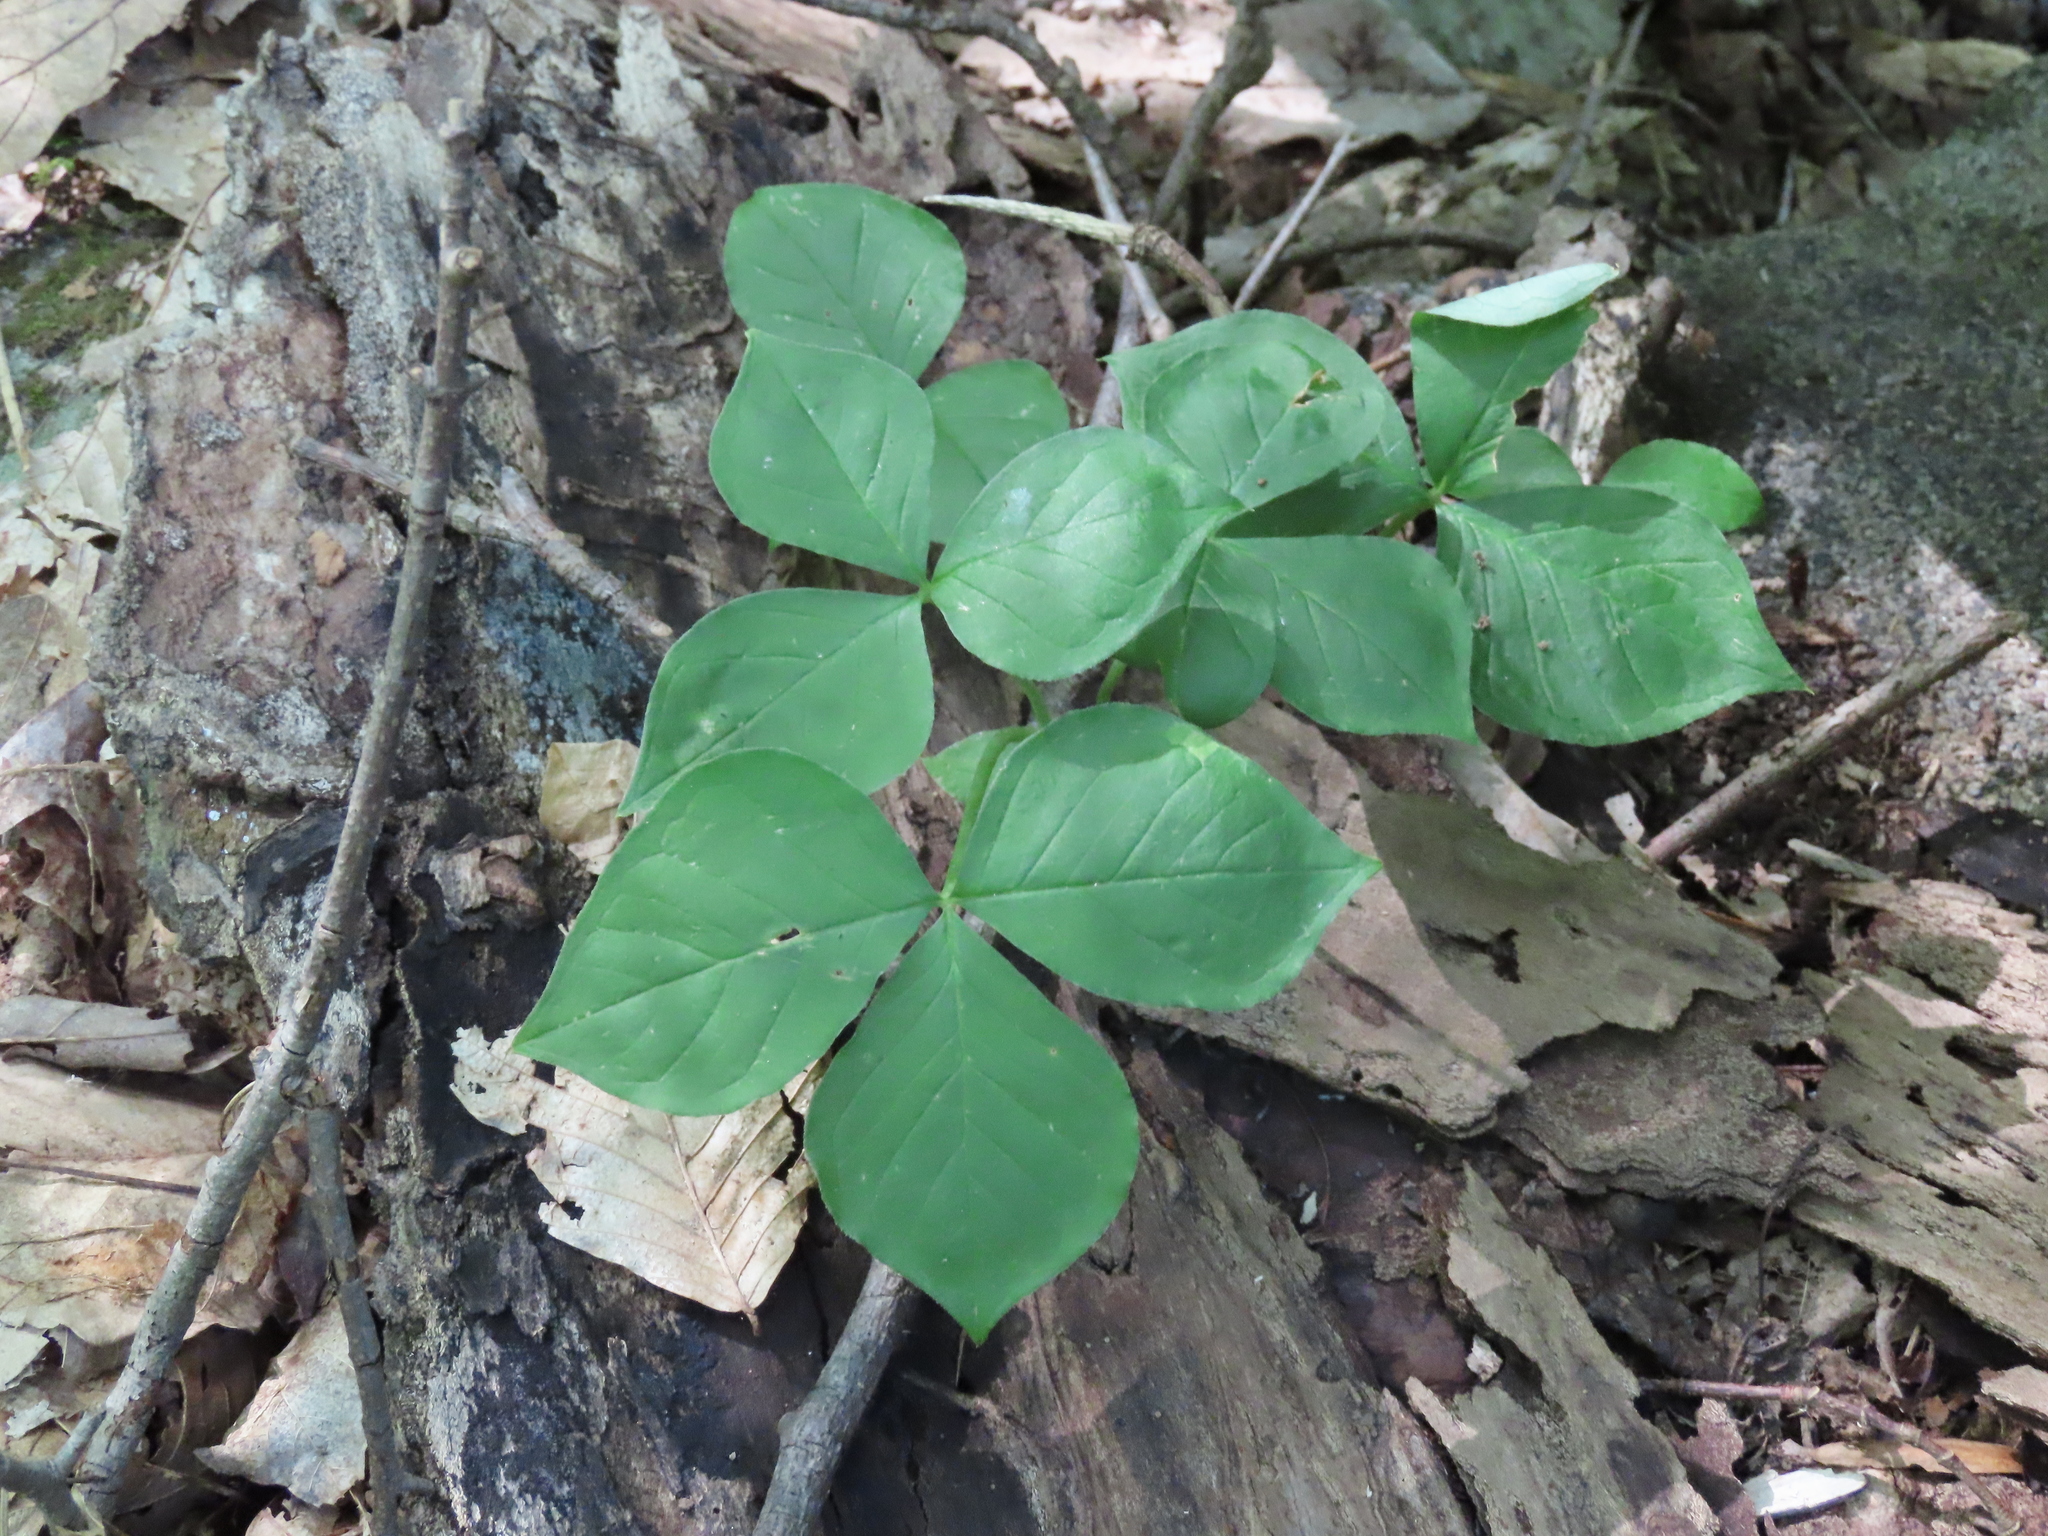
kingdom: Plantae
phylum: Tracheophyta
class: Liliopsida
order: Alismatales
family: Araceae
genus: Arisaema
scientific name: Arisaema triphyllum
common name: Jack-in-the-pulpit
